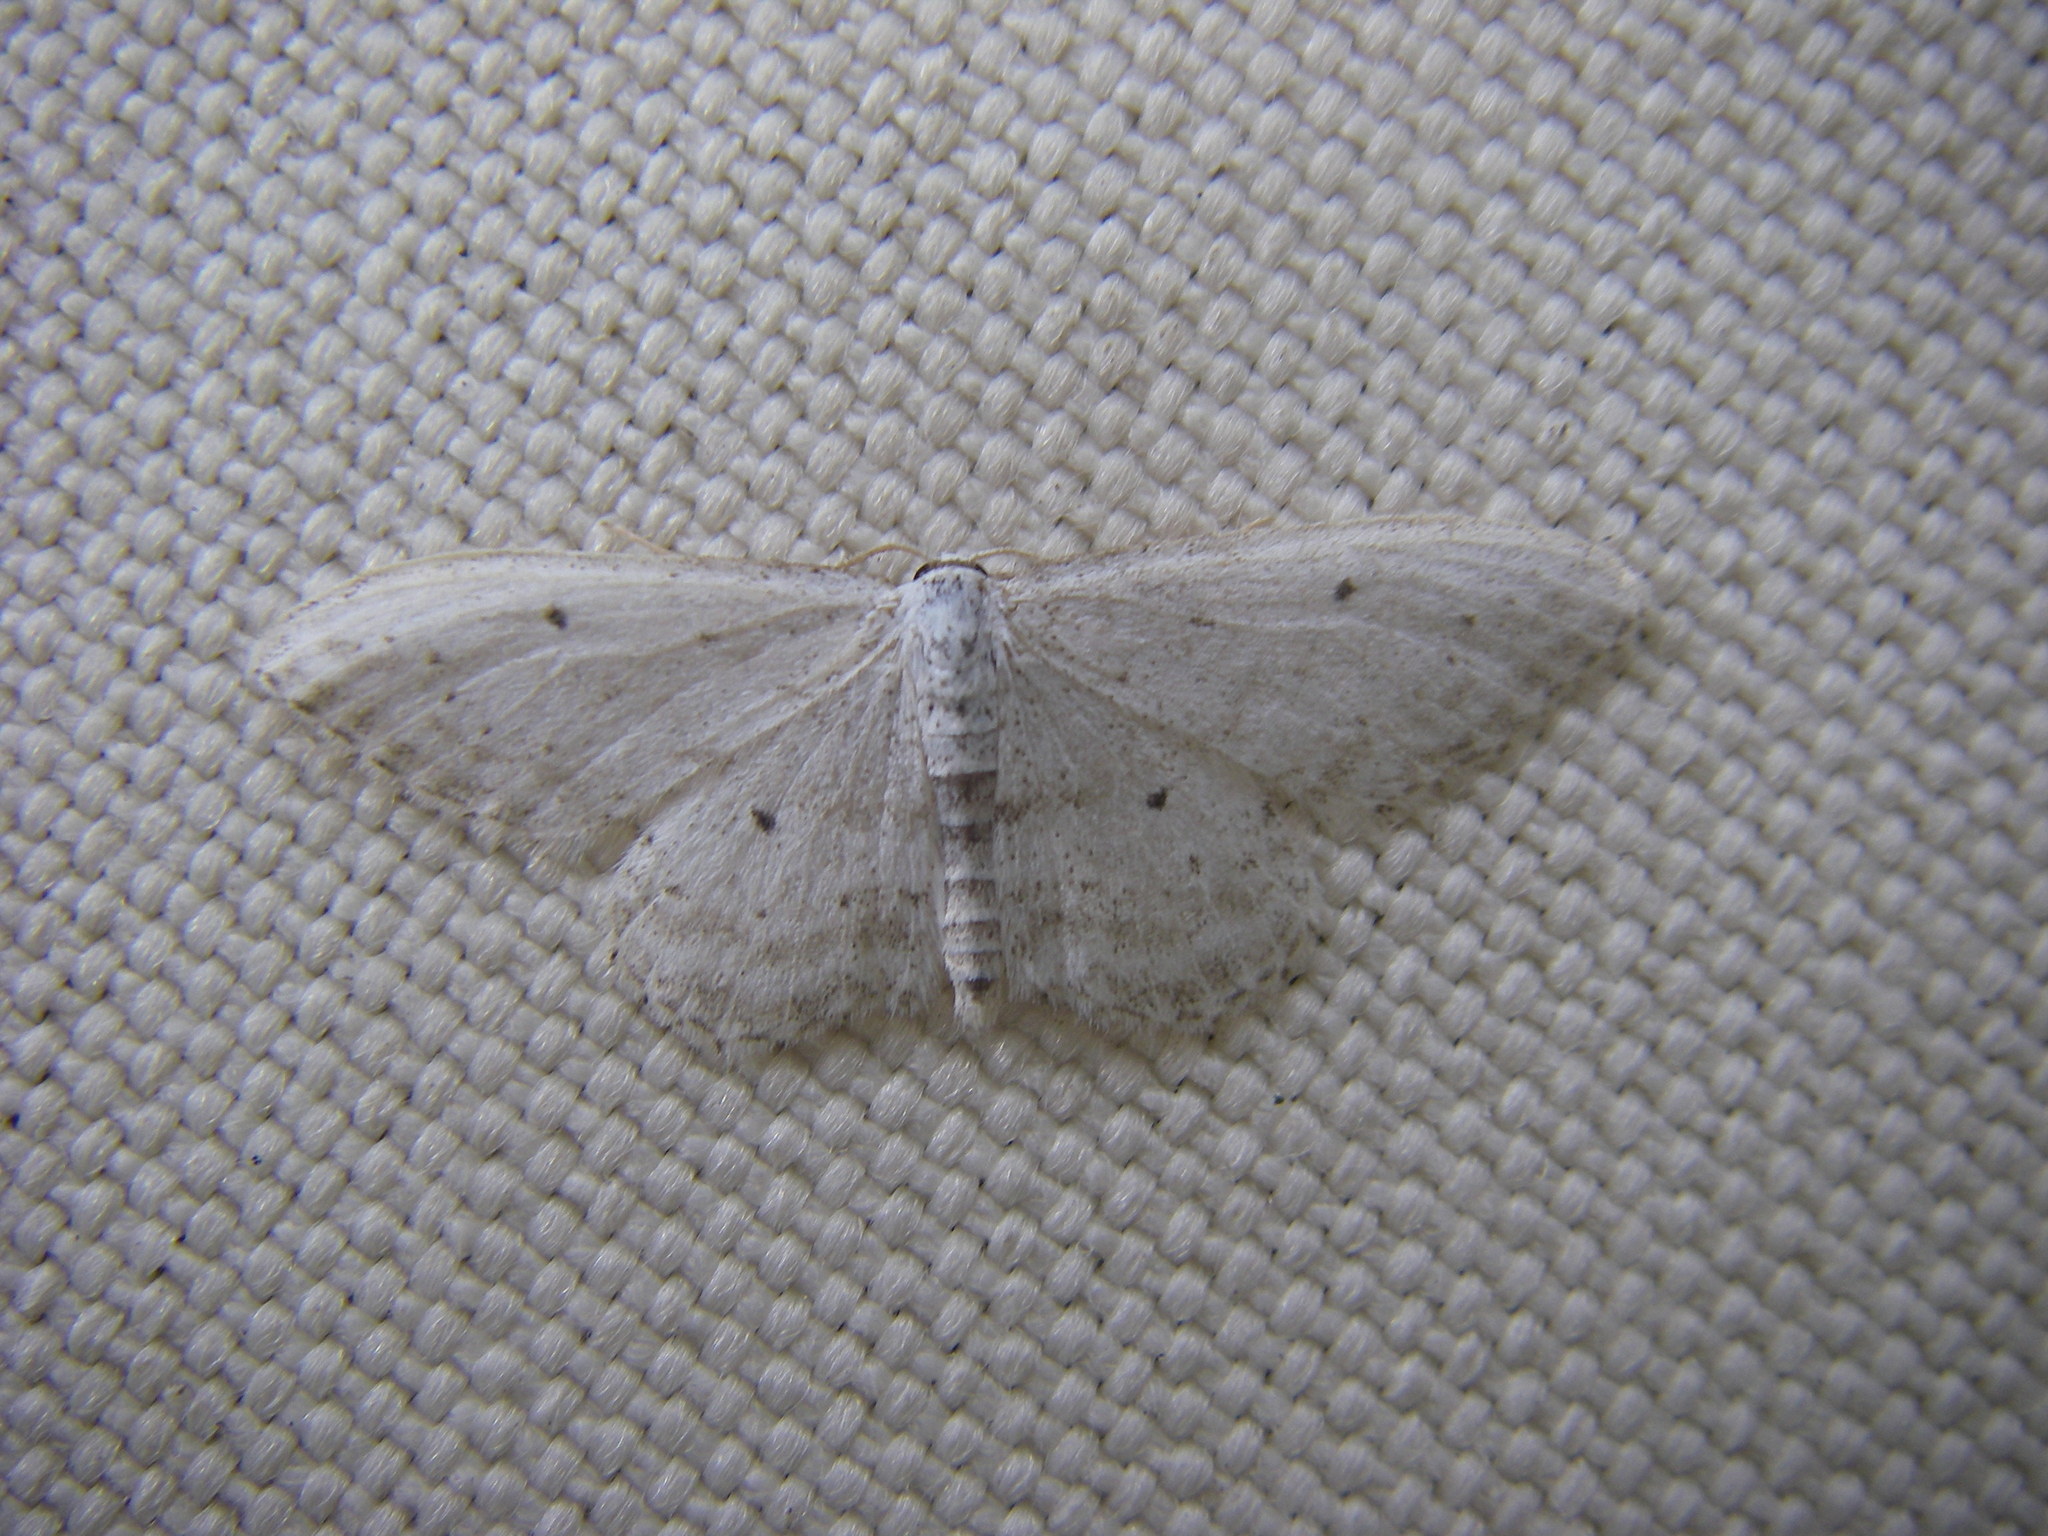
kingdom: Animalia
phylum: Arthropoda
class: Insecta
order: Lepidoptera
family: Geometridae
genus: Idaea
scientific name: Idaea seriata
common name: Small dusty wave
